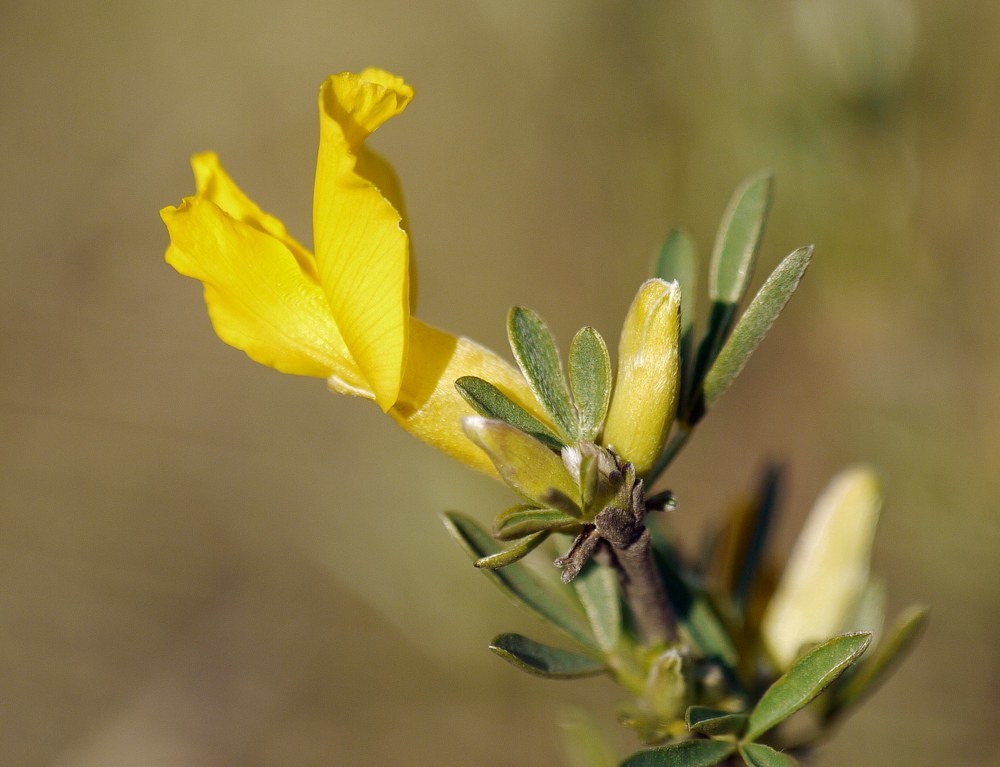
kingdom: Plantae
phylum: Tracheophyta
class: Magnoliopsida
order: Fabales
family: Fabaceae
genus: Chamaecytisus
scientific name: Chamaecytisus borysthenicus
